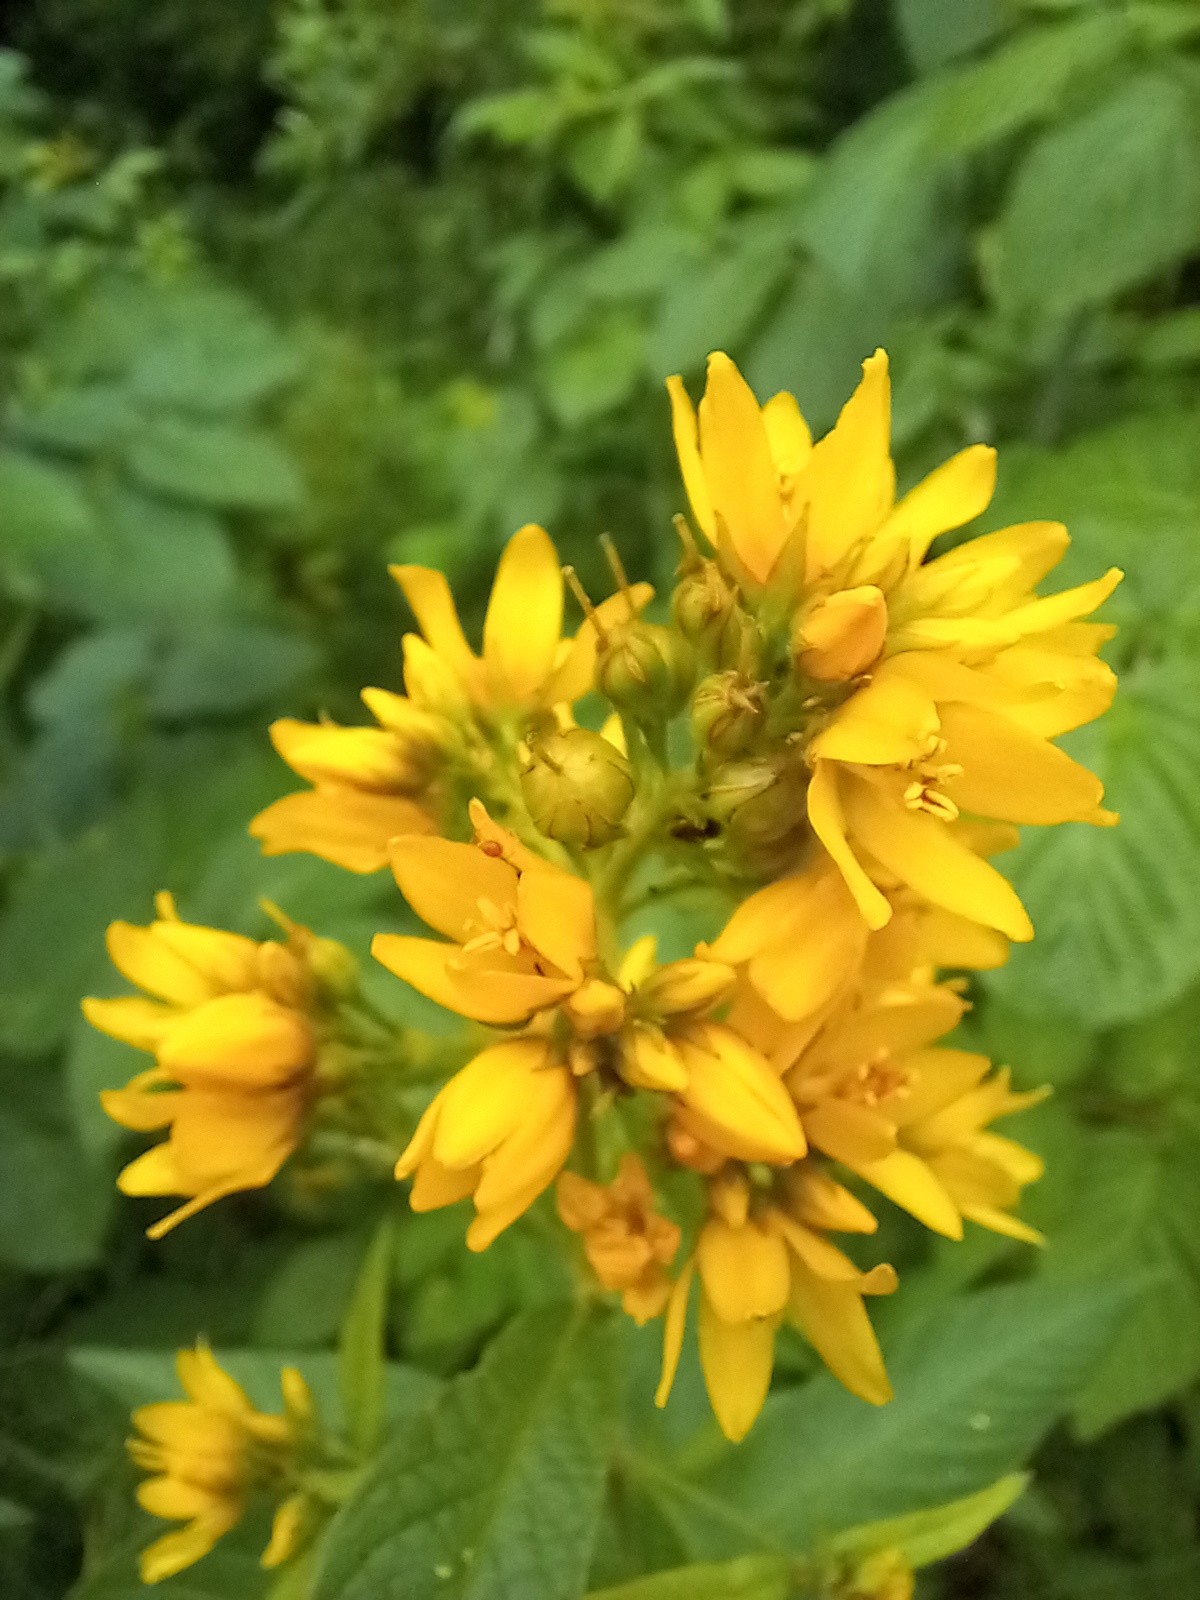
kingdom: Plantae
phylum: Tracheophyta
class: Magnoliopsida
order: Ericales
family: Primulaceae
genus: Lysimachia
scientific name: Lysimachia vulgaris
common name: Yellow loosestrife
